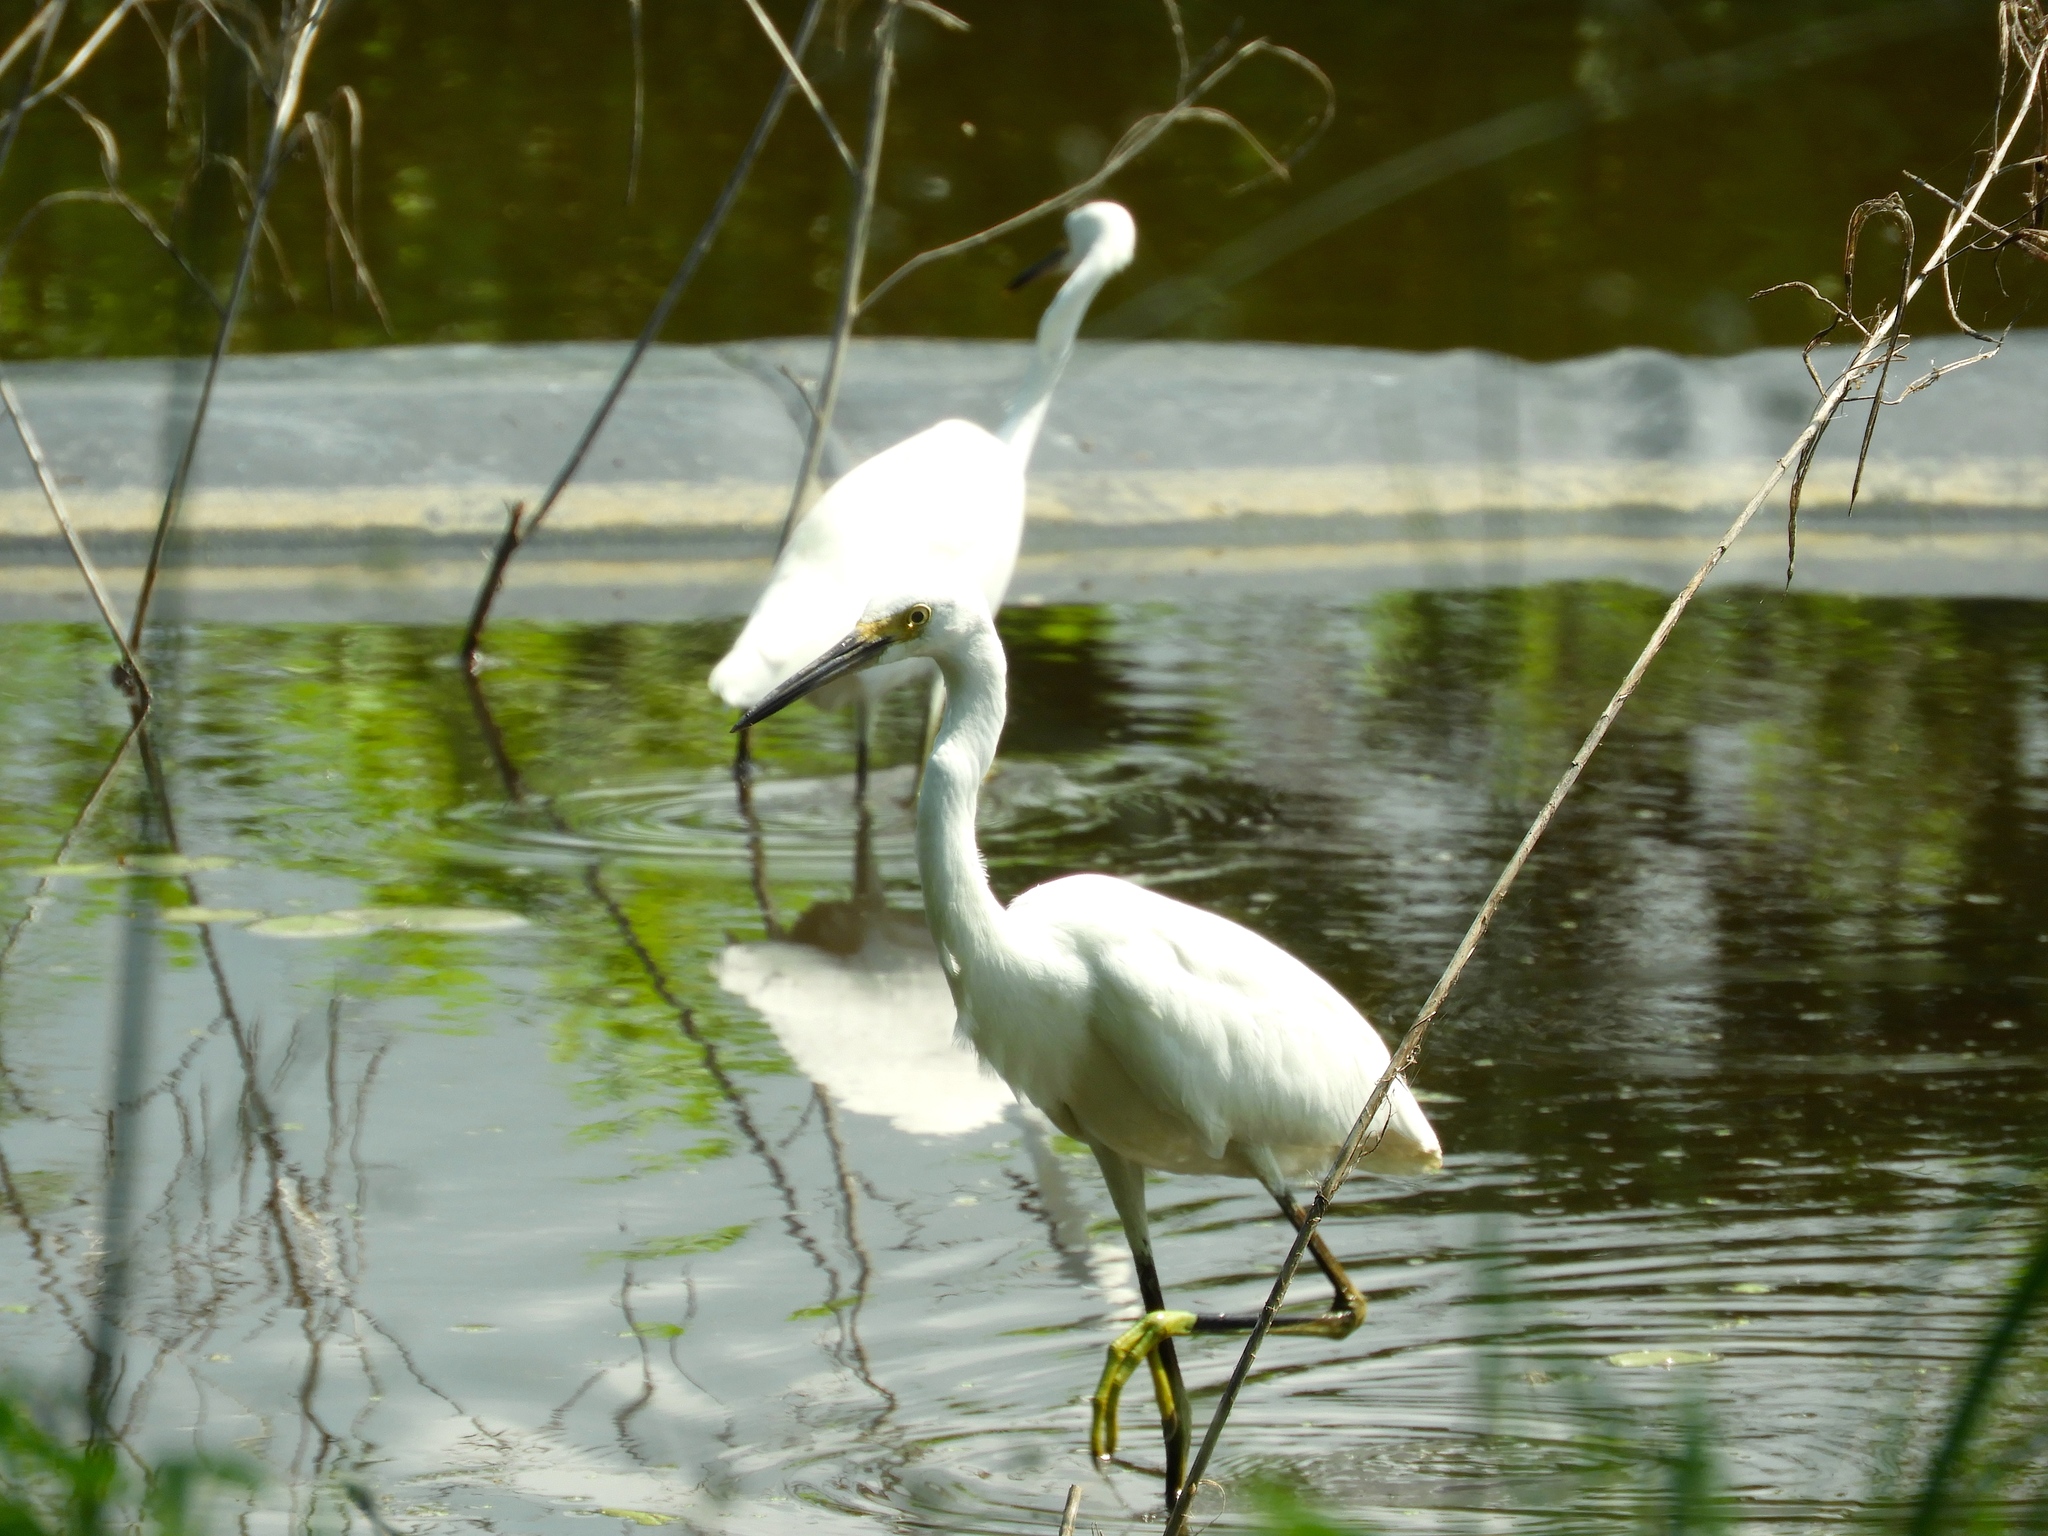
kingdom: Animalia
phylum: Chordata
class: Aves
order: Pelecaniformes
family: Ardeidae
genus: Egretta
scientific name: Egretta thula
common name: Snowy egret
